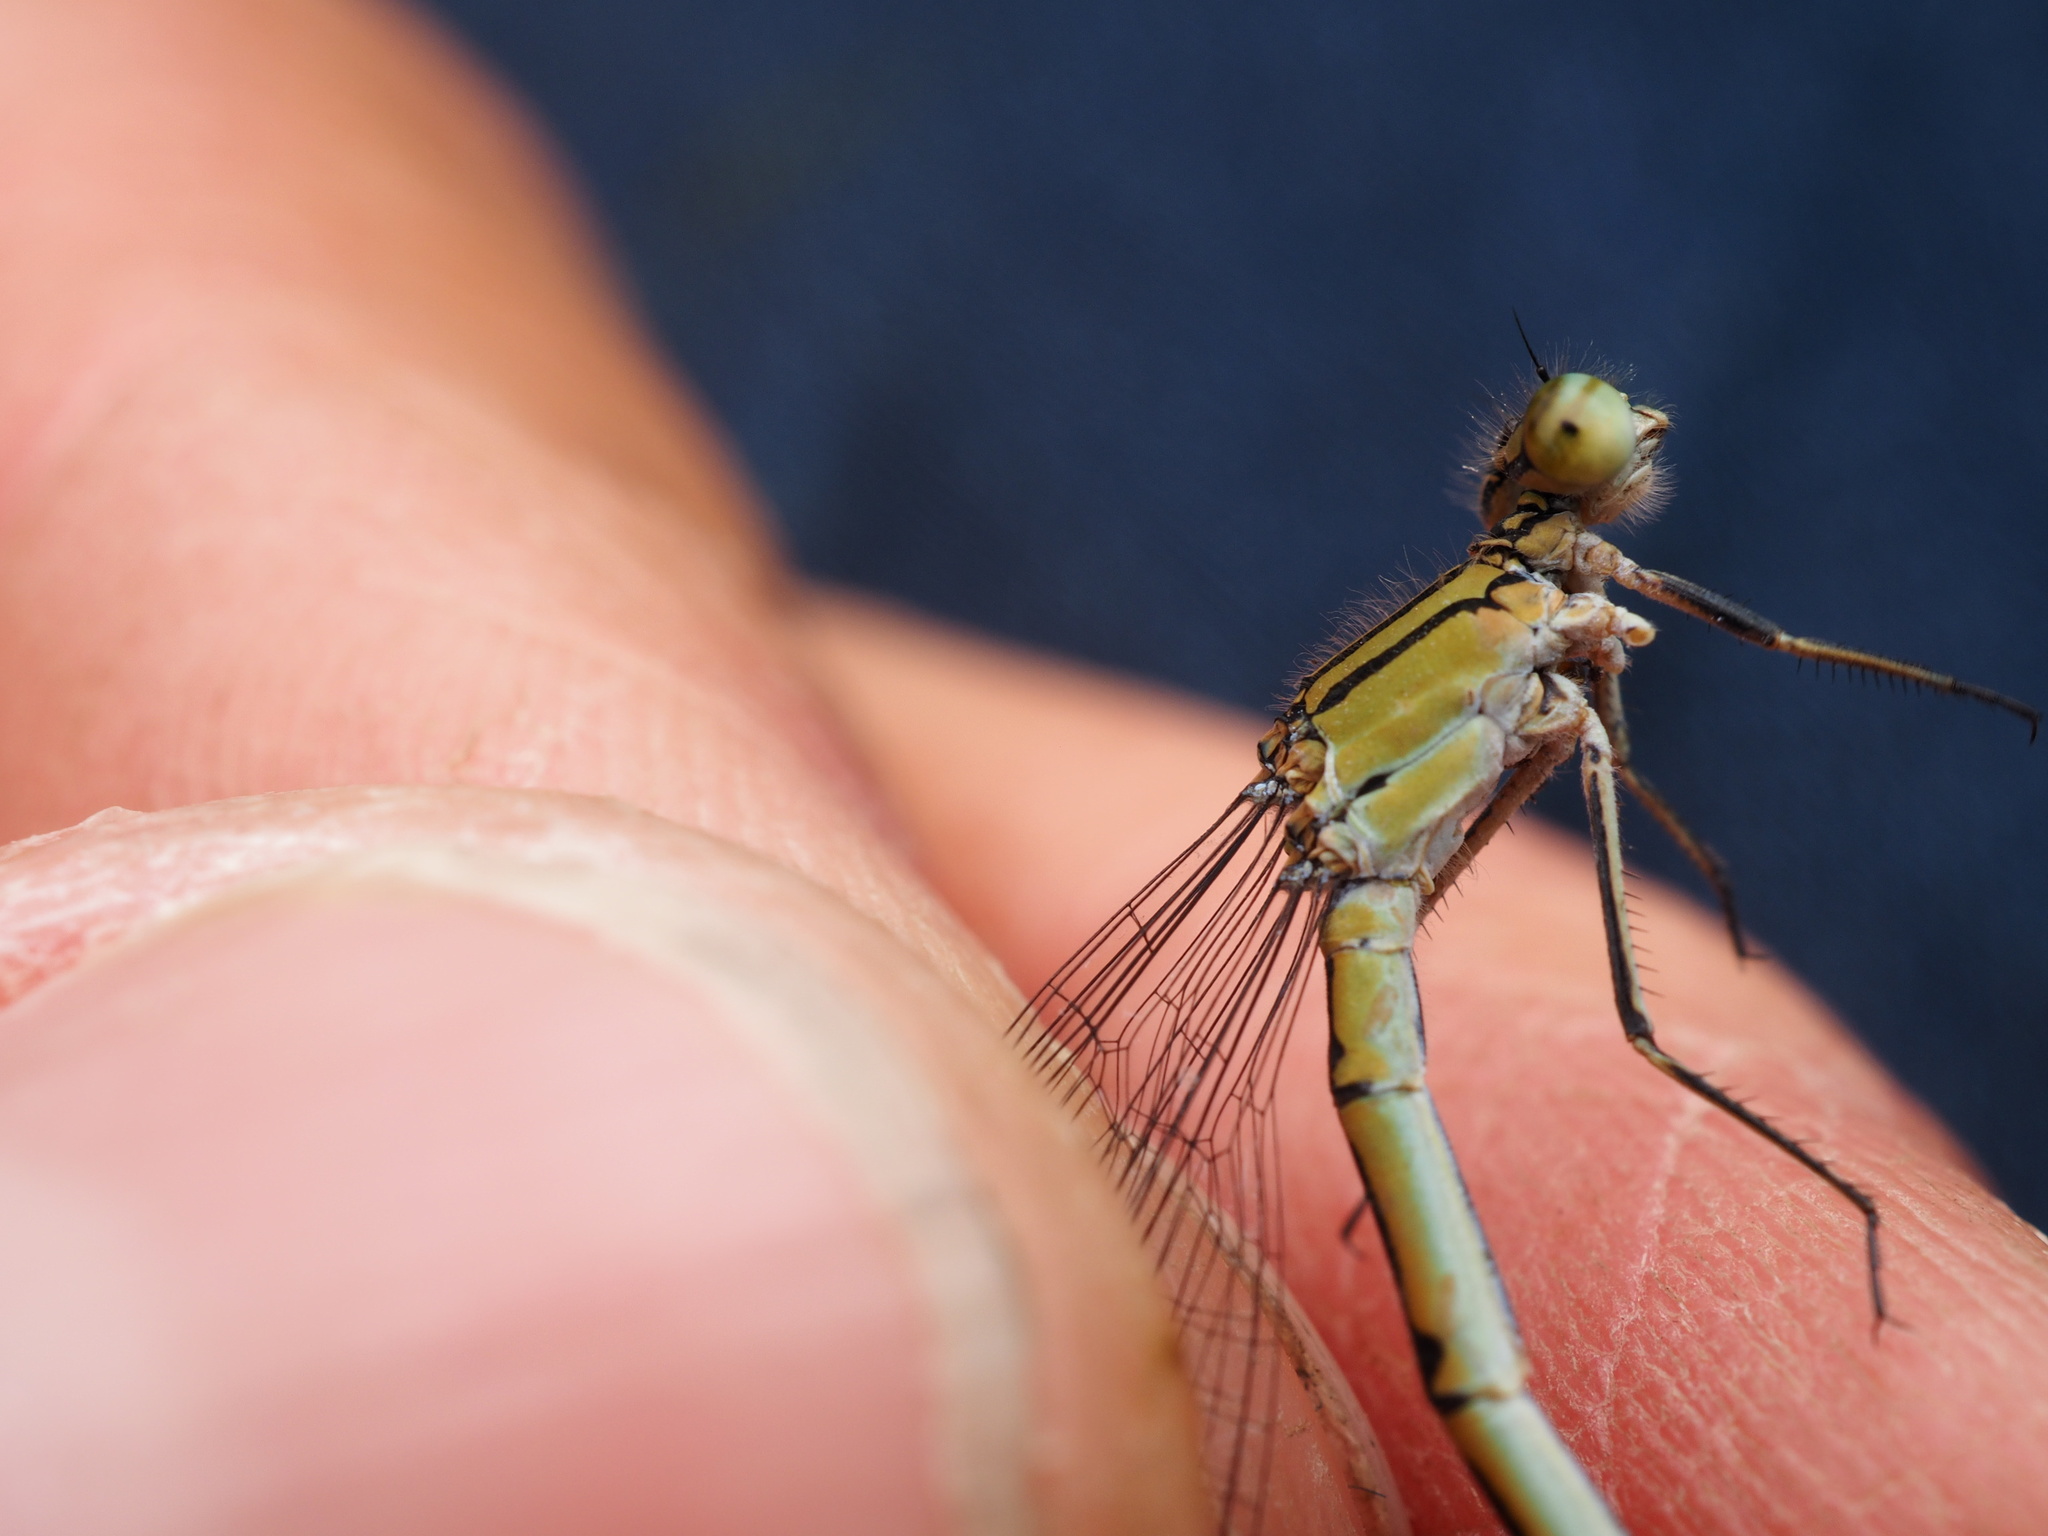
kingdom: Animalia
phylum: Arthropoda
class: Insecta
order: Odonata
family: Coenagrionidae
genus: Enallagma
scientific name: Enallagma cyathigerum
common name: Common blue damselfly
